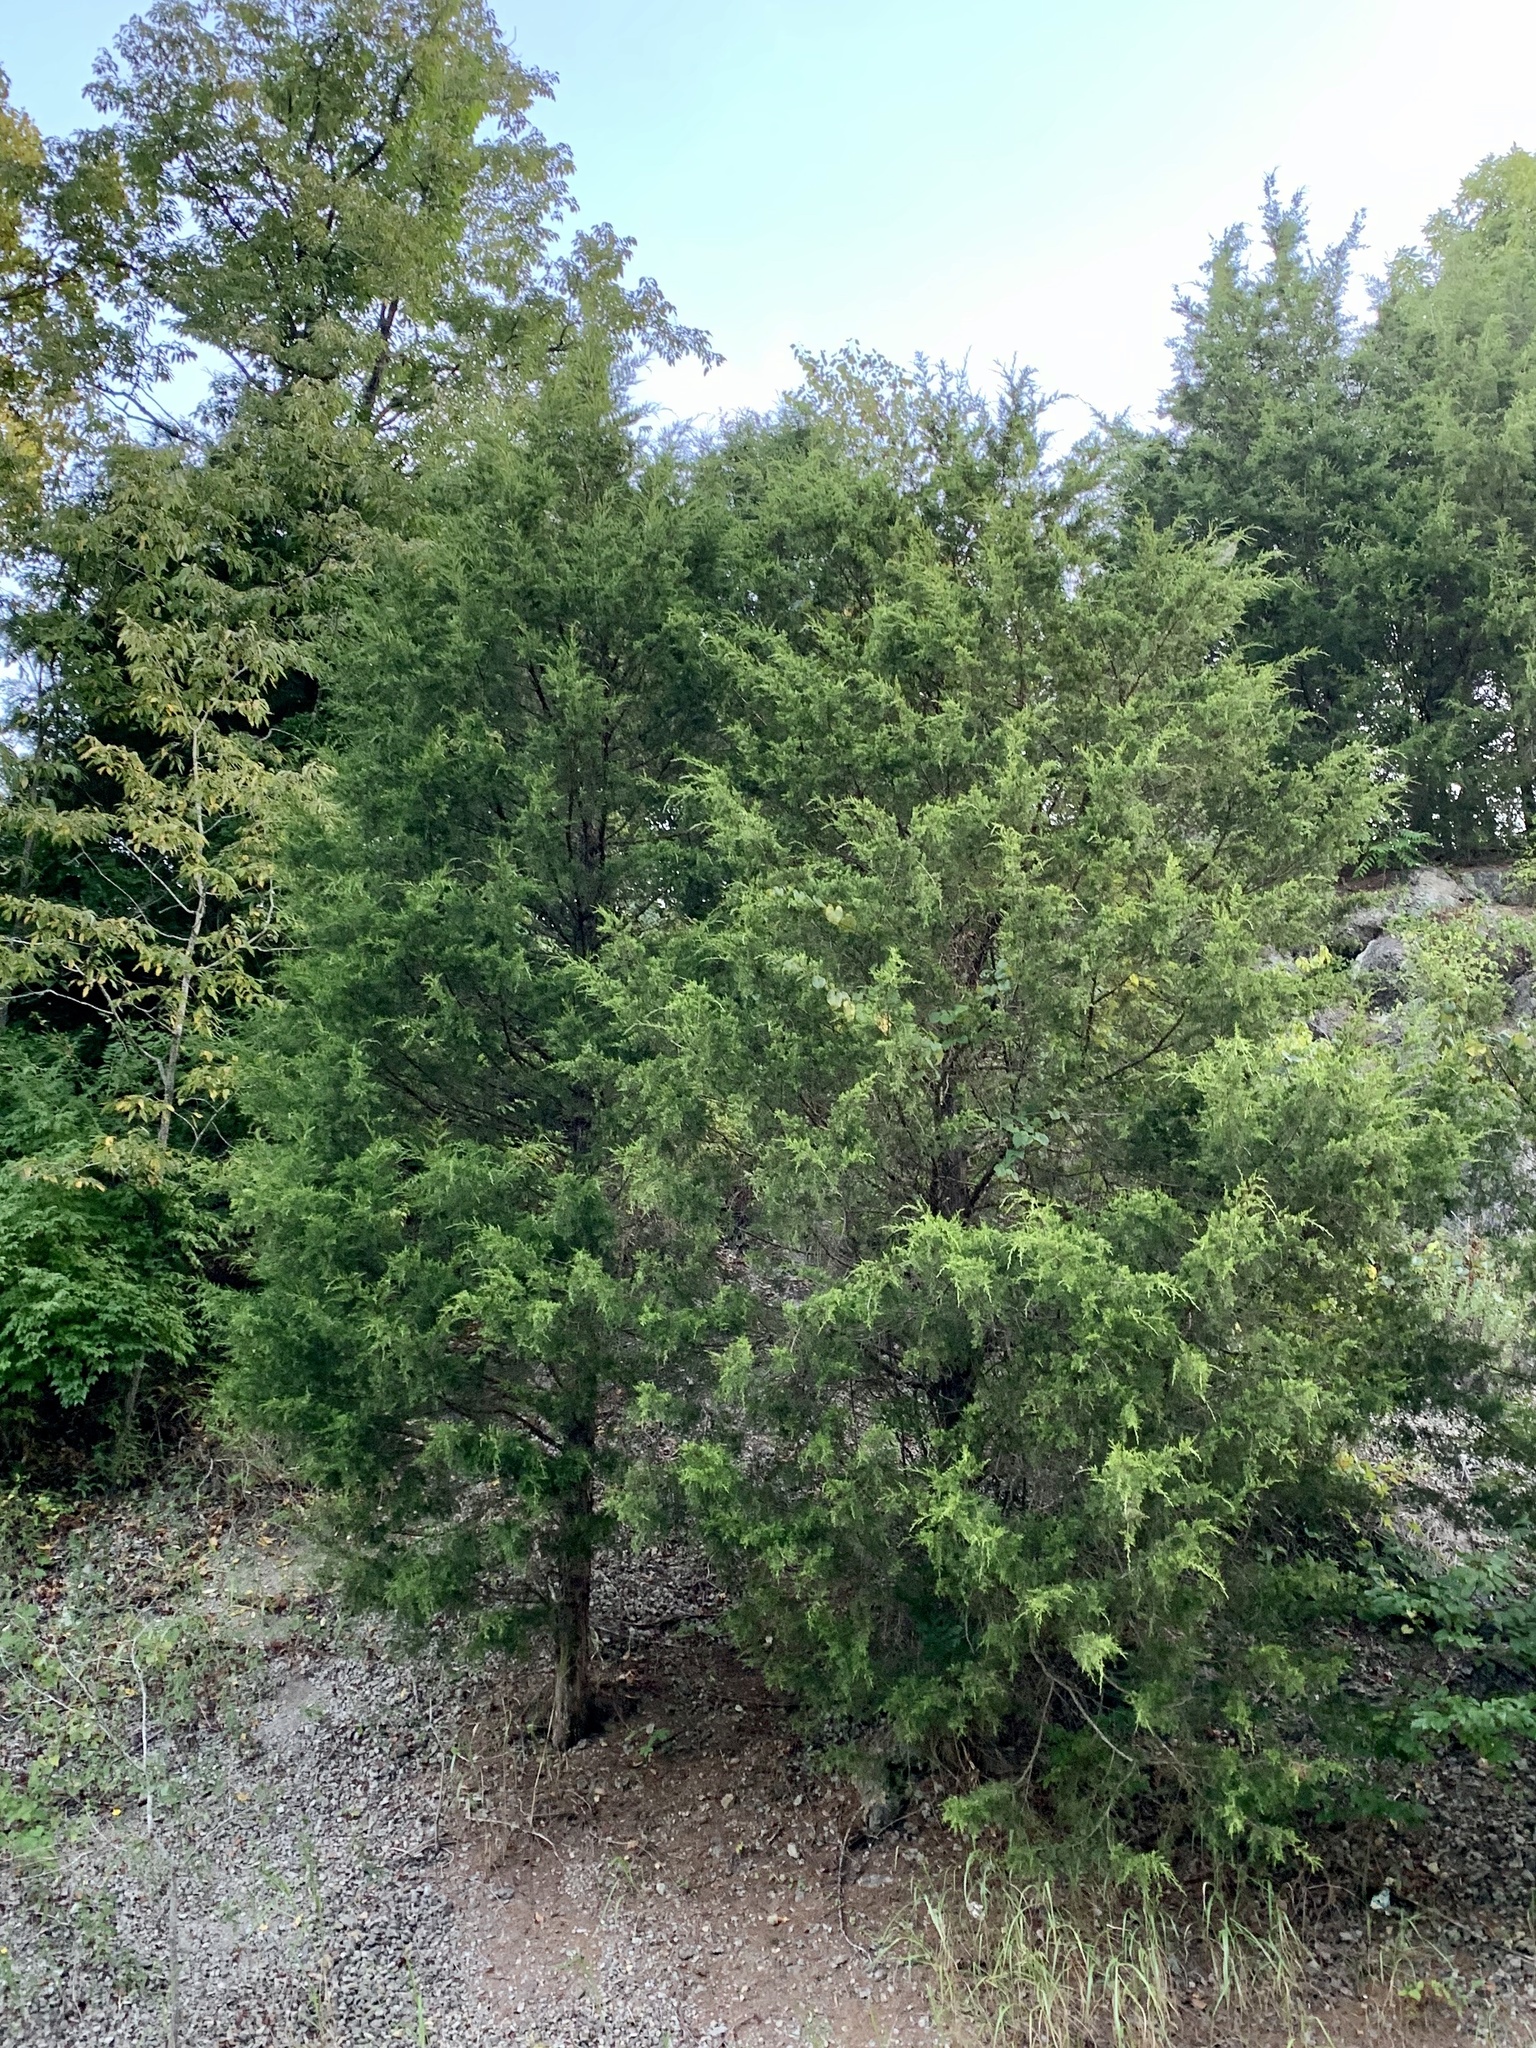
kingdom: Plantae
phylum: Tracheophyta
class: Pinopsida
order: Pinales
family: Cupressaceae
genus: Juniperus
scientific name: Juniperus virginiana
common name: Red juniper
